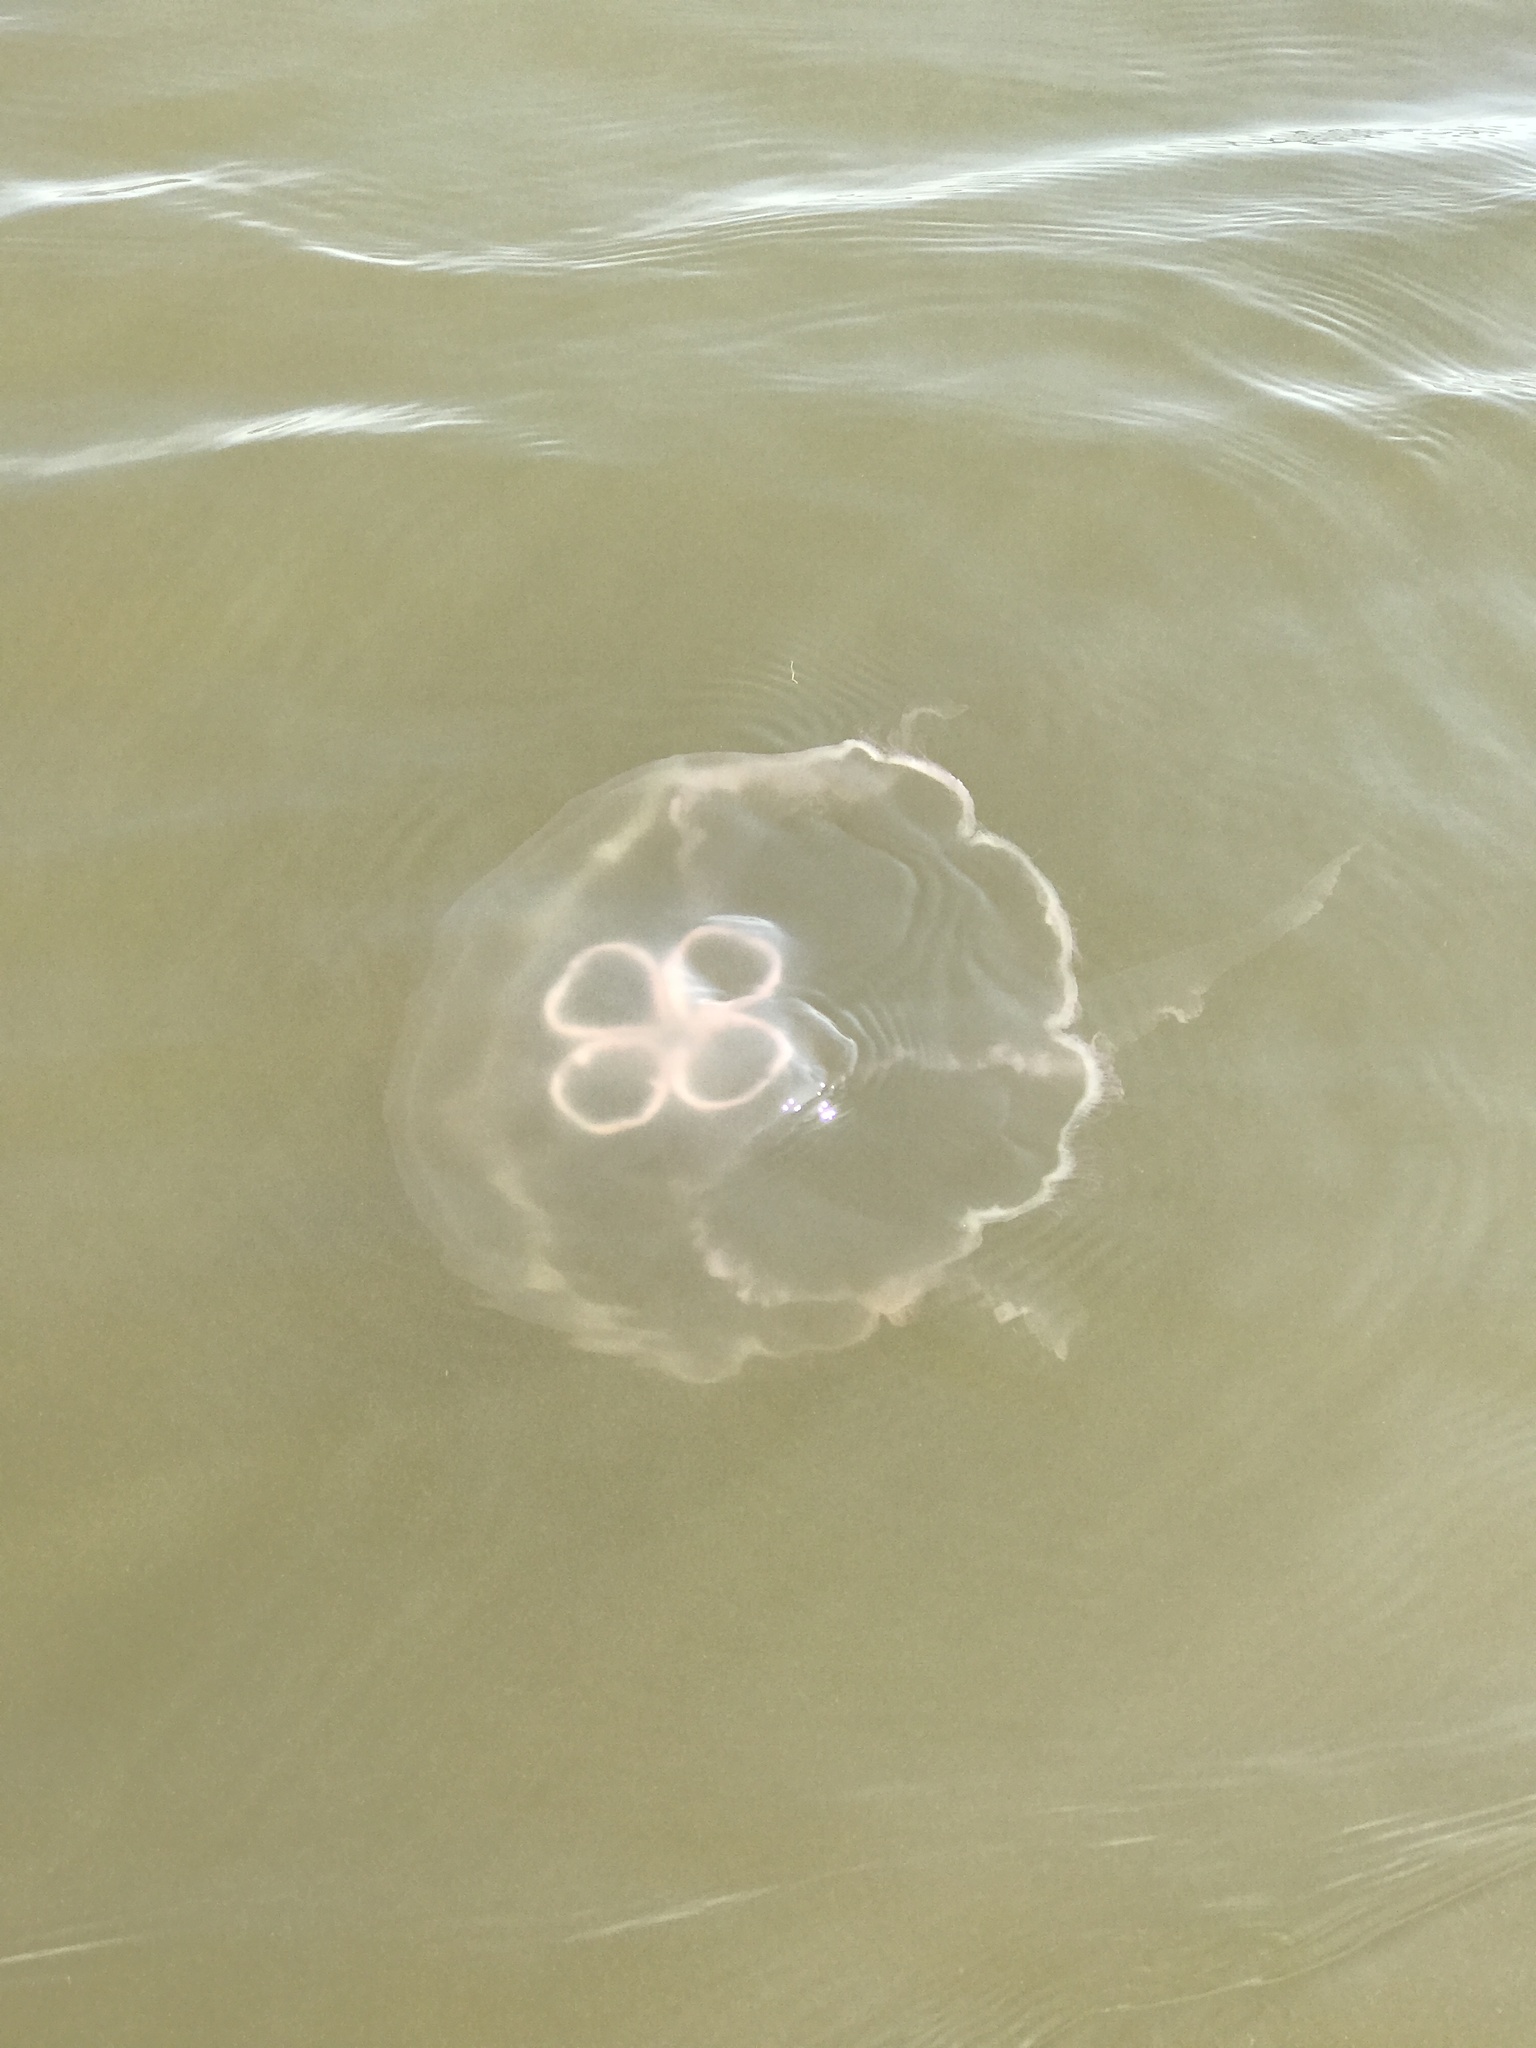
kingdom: Animalia
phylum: Cnidaria
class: Scyphozoa
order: Semaeostomeae
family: Ulmaridae
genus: Aurelia
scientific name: Aurelia marginalis
